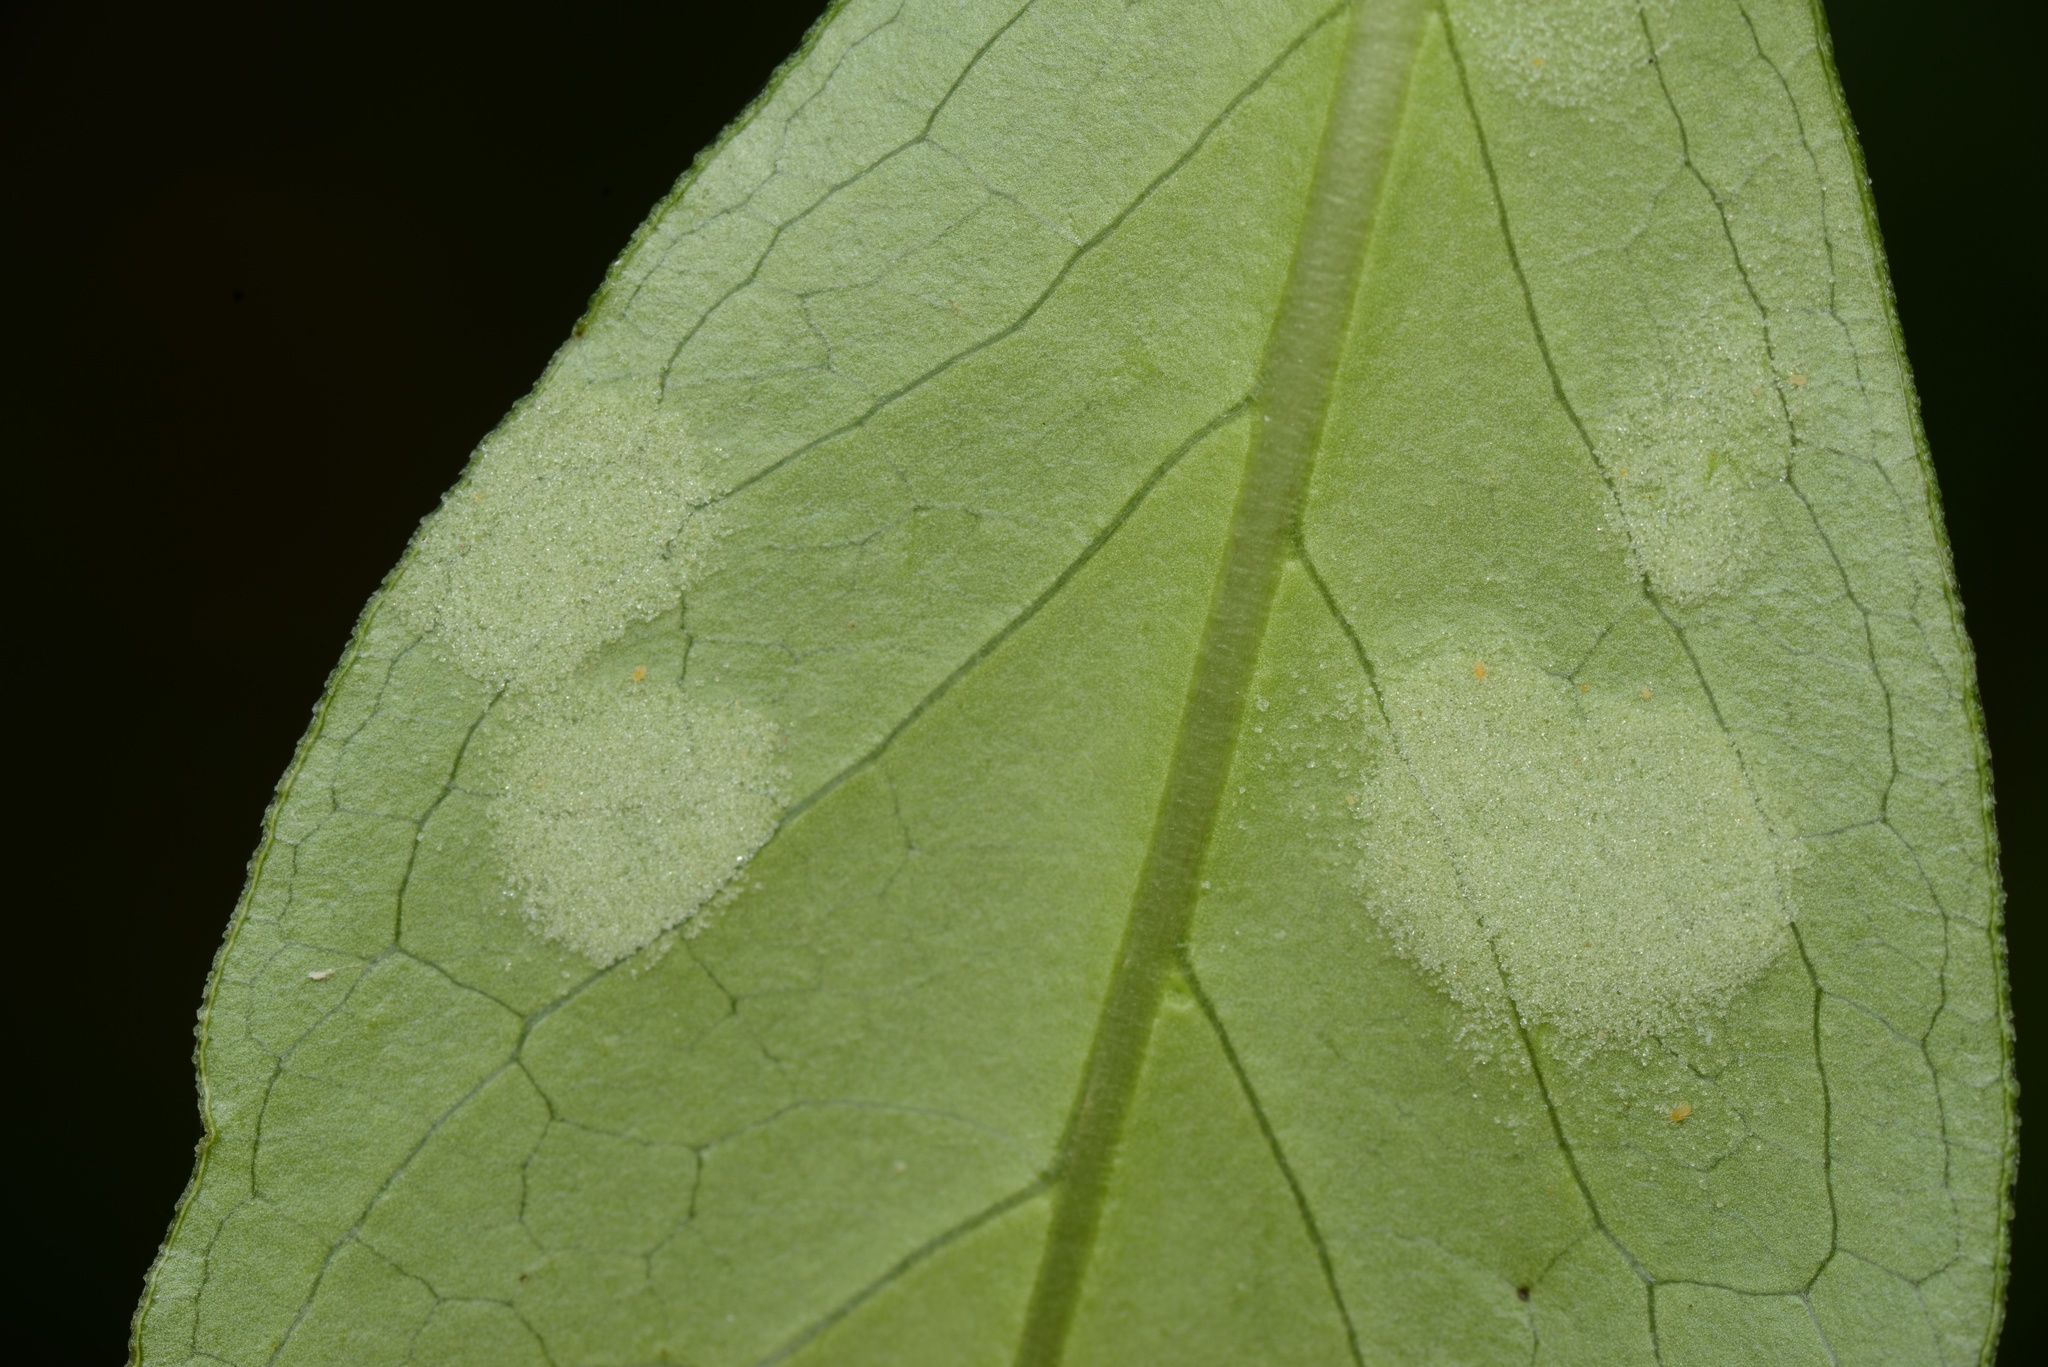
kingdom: Animalia
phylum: Arthropoda
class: Arachnida
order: Trombidiformes
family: Eriophyidae
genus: Phyllocoptes
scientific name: Phyllocoptes coprosmae
